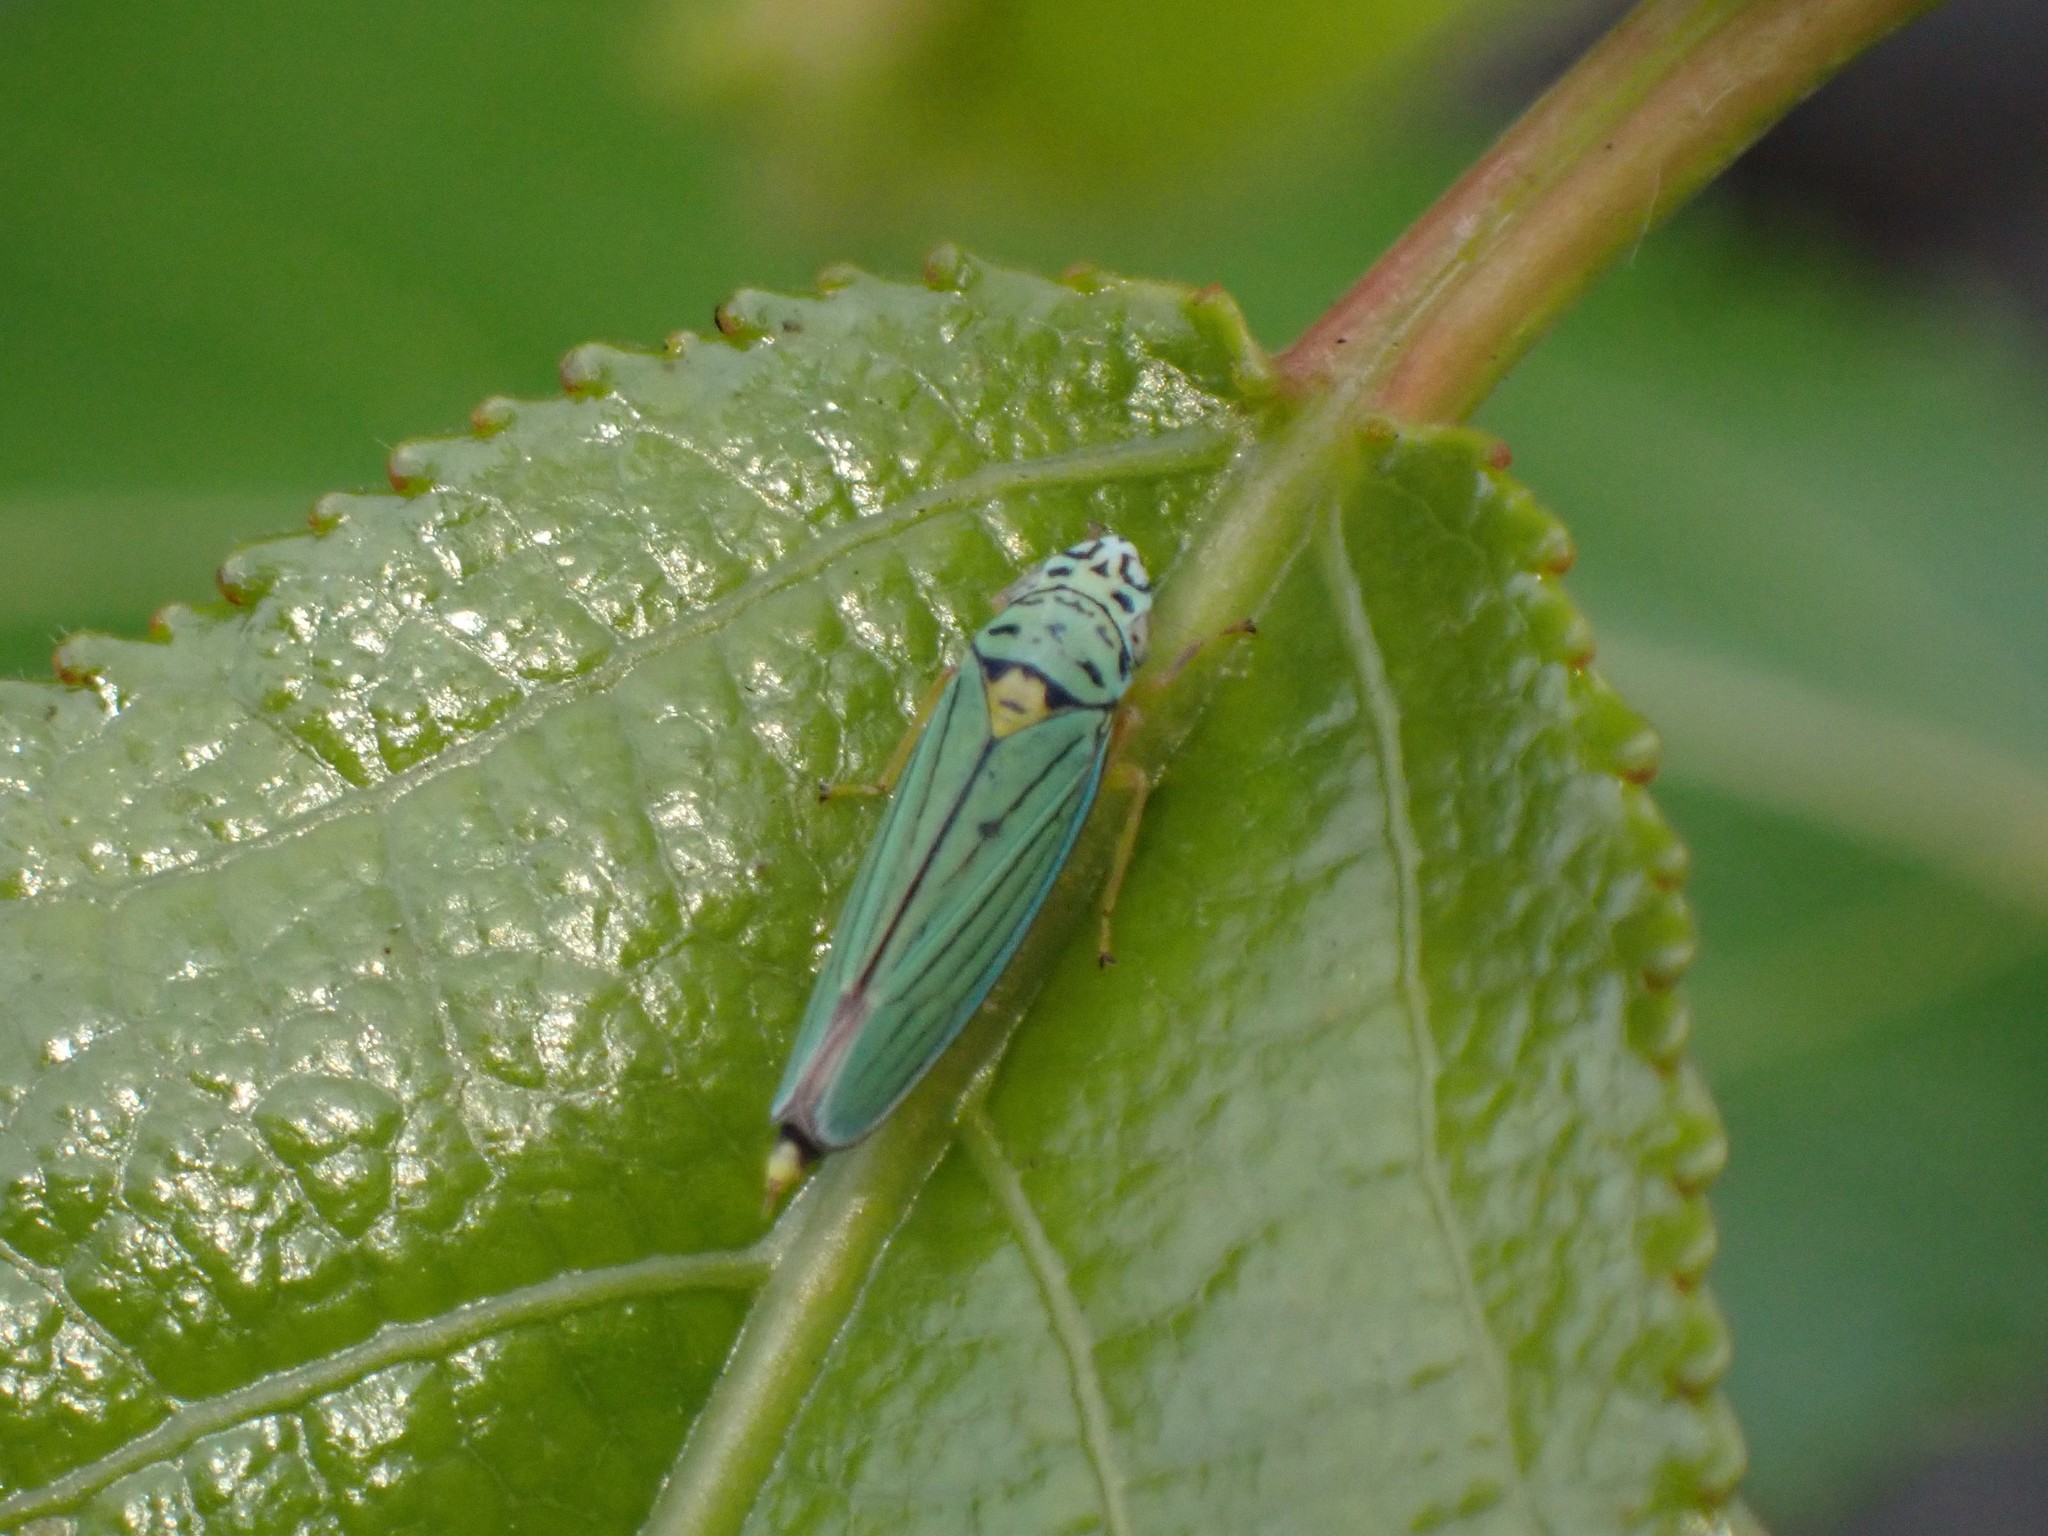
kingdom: Animalia
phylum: Arthropoda
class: Insecta
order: Hemiptera
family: Cicadellidae
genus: Graphocephala
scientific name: Graphocephala atropunctata
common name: Blue-green sharpshooter
